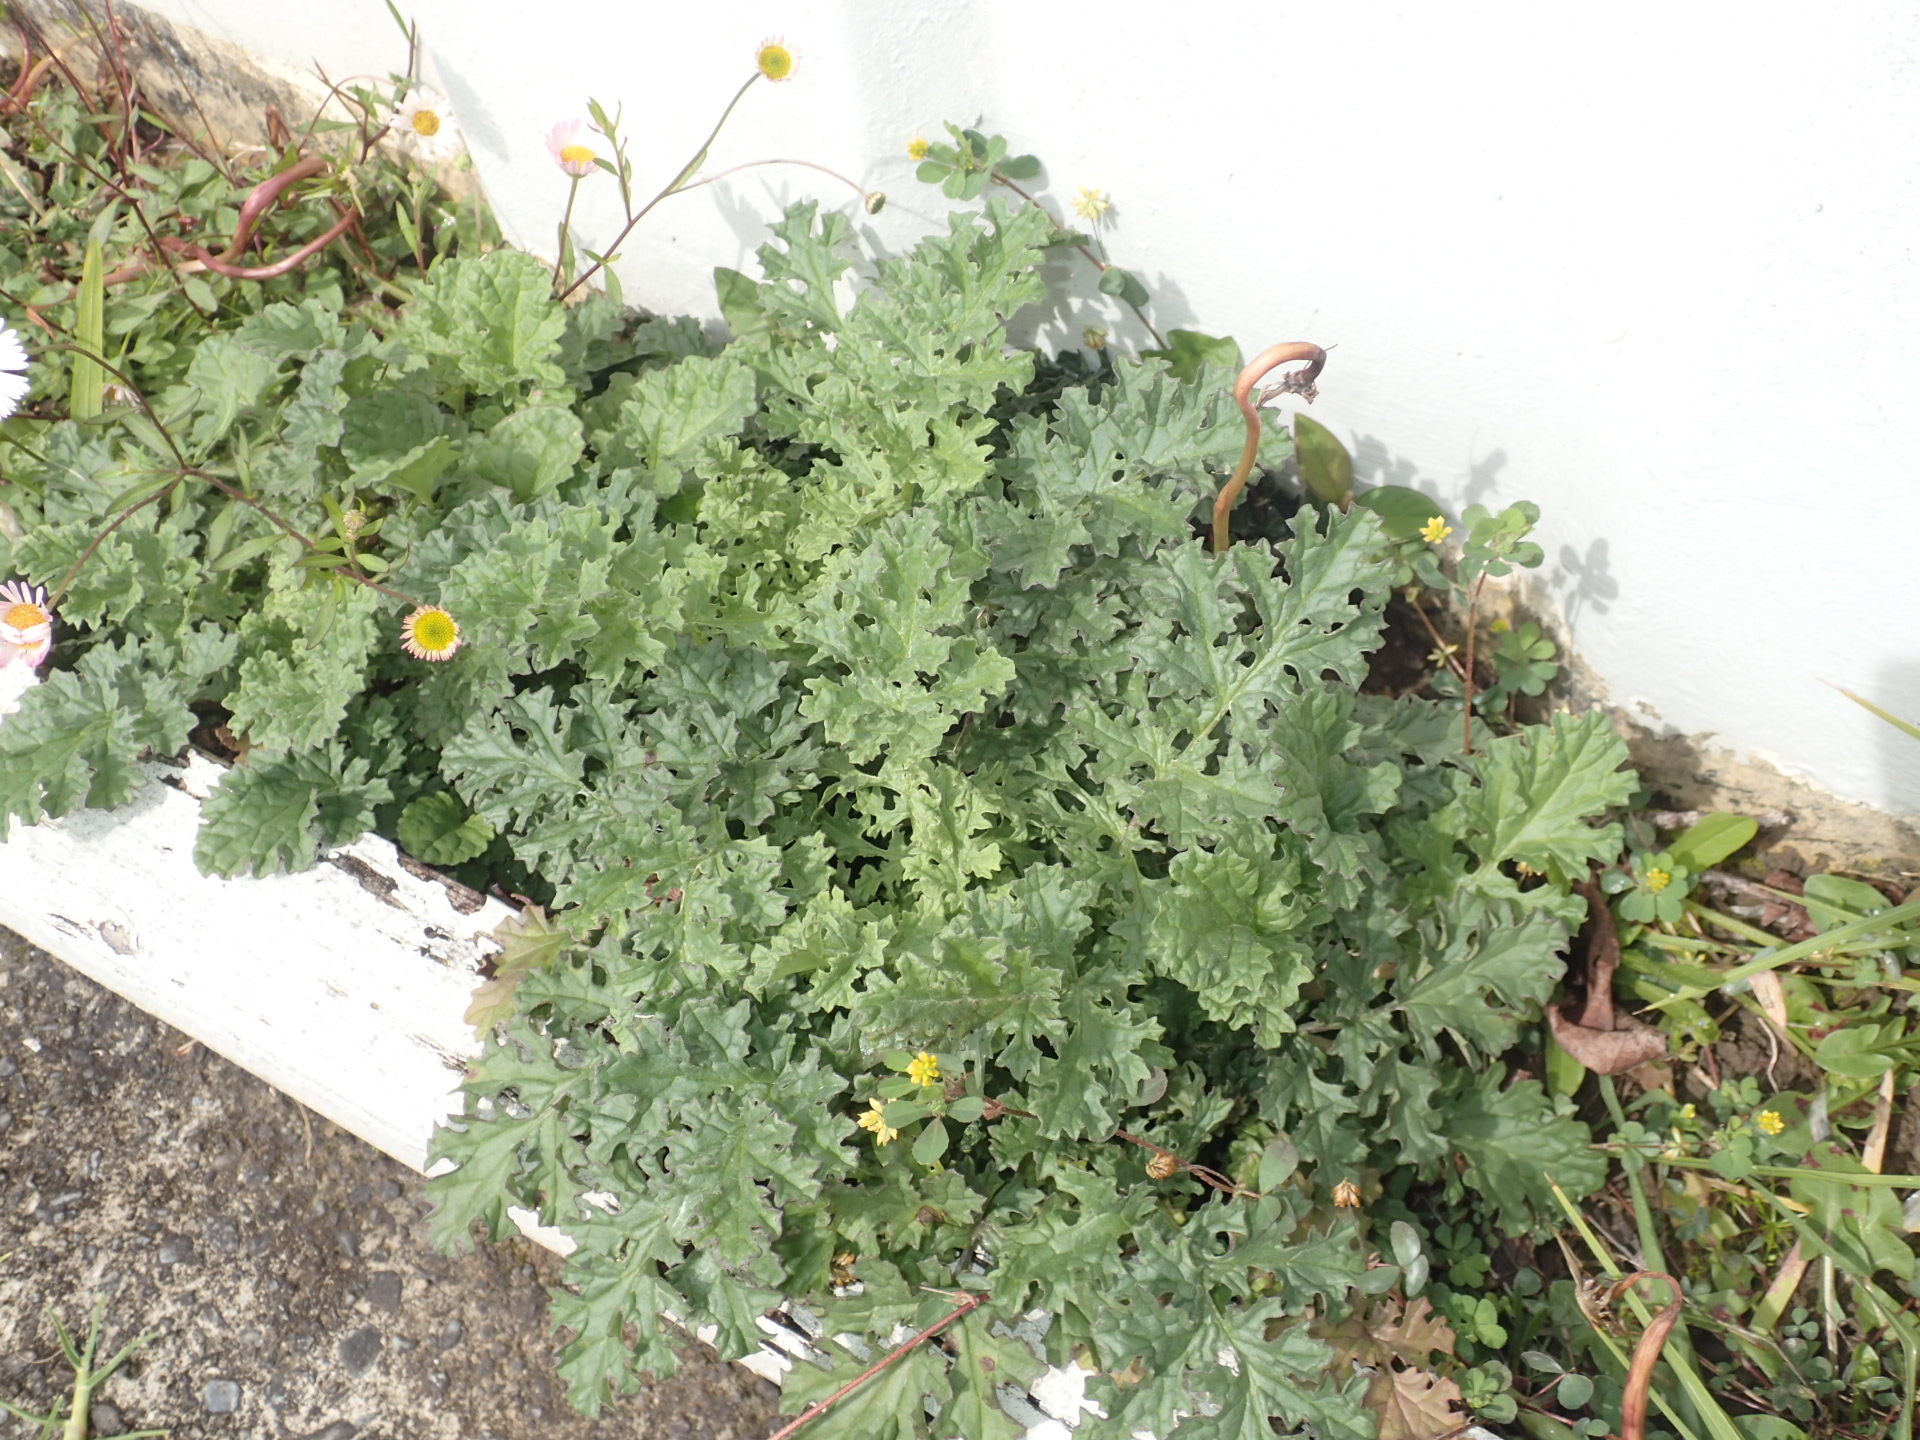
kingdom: Plantae
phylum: Tracheophyta
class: Magnoliopsida
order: Asterales
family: Asteraceae
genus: Jacobaea
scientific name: Jacobaea vulgaris
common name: Stinking willie
